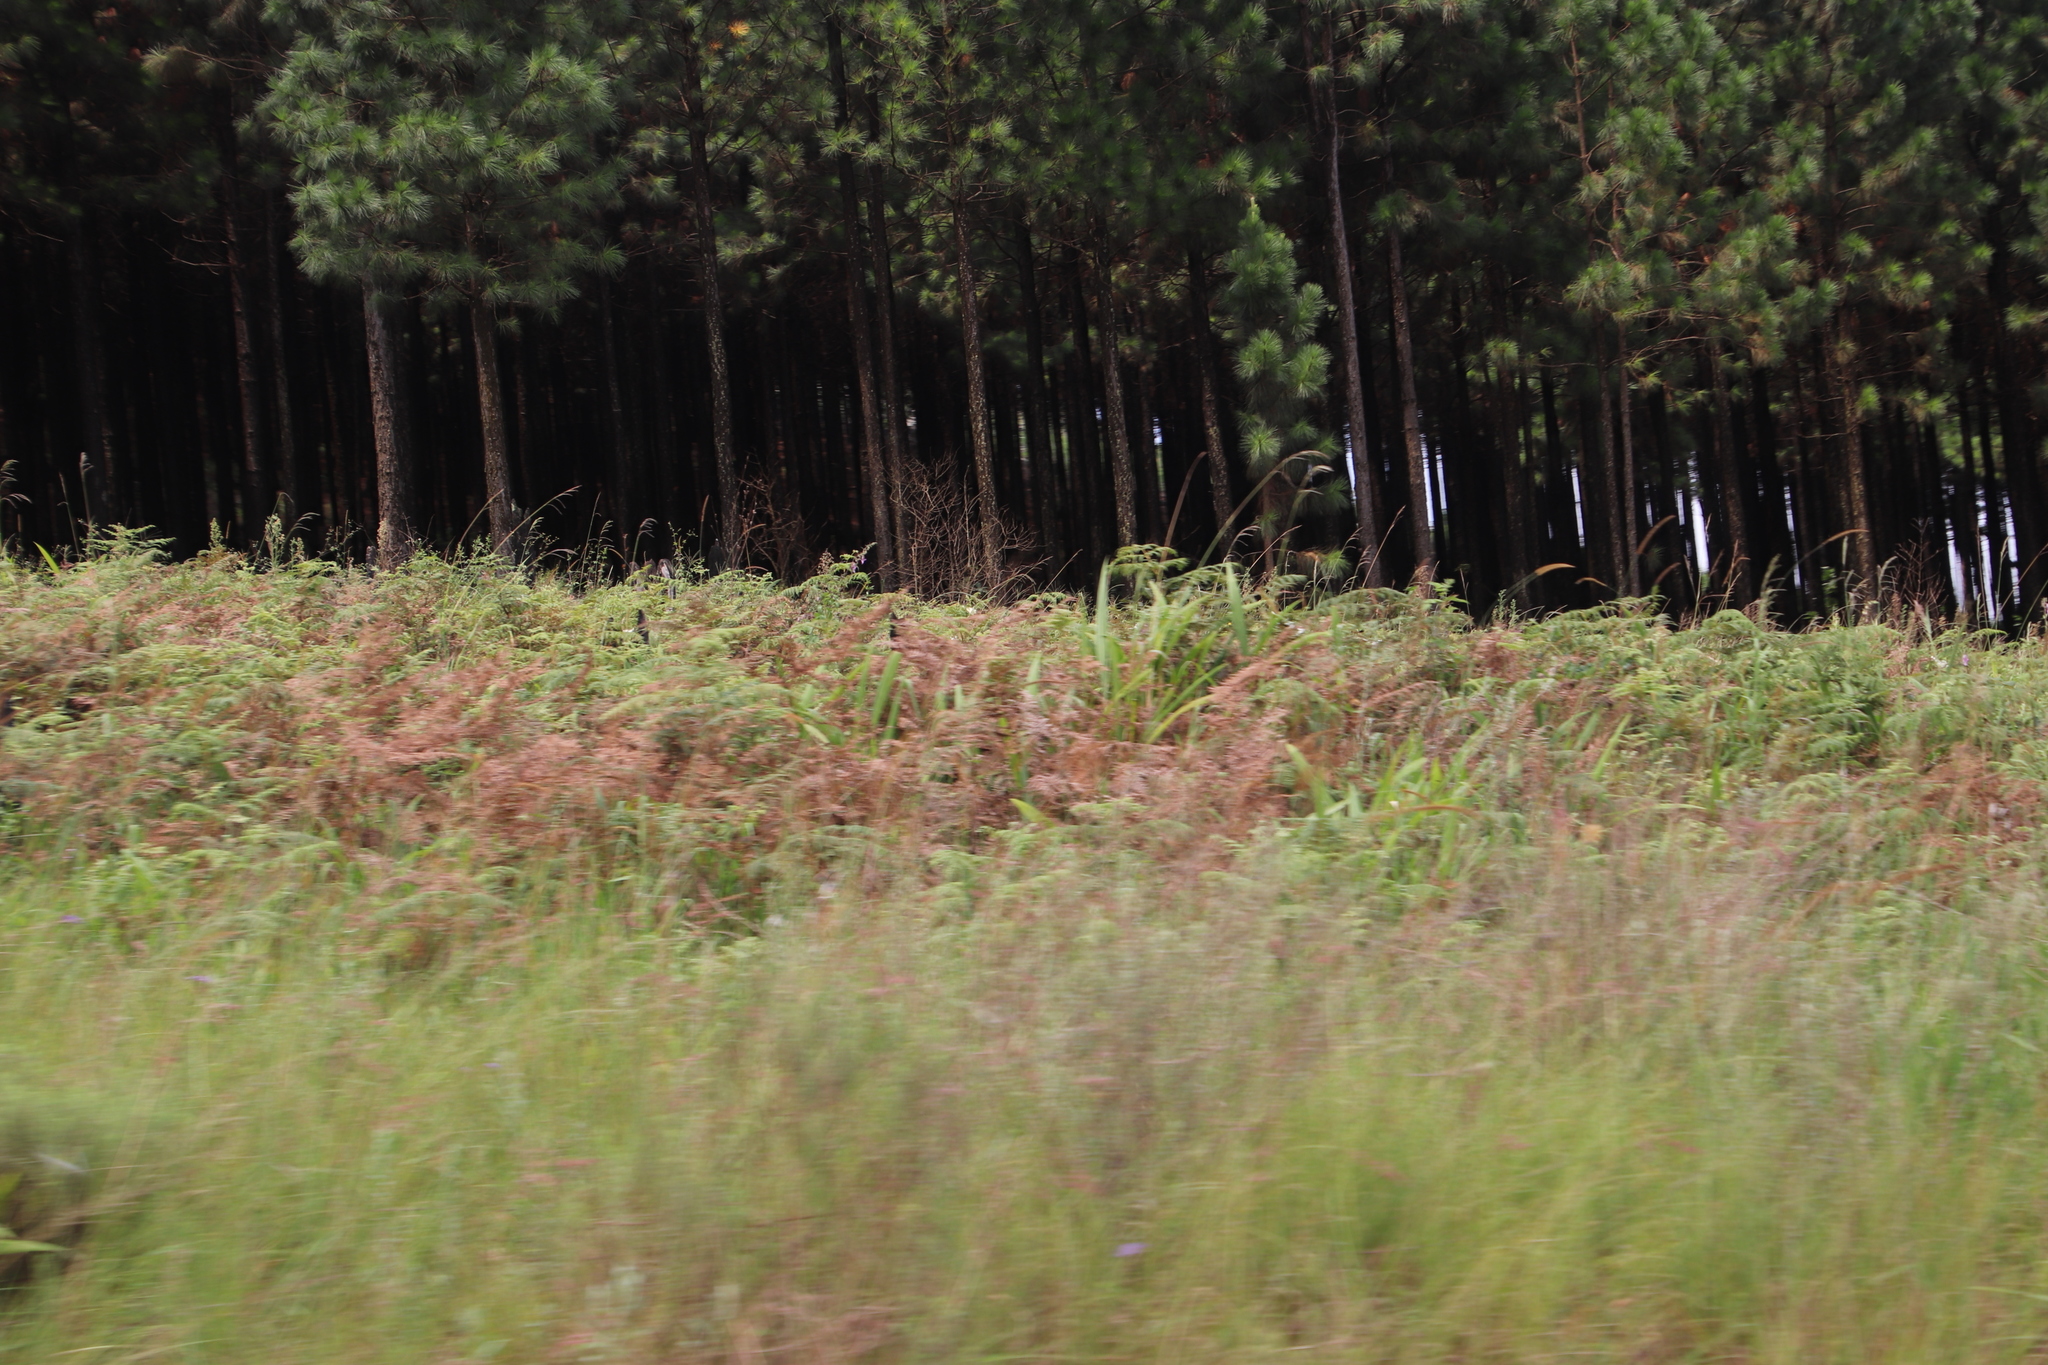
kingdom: Plantae
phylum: Tracheophyta
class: Liliopsida
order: Liliales
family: Liliaceae
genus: Lilium
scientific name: Lilium formosanum
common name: Formosa lily
